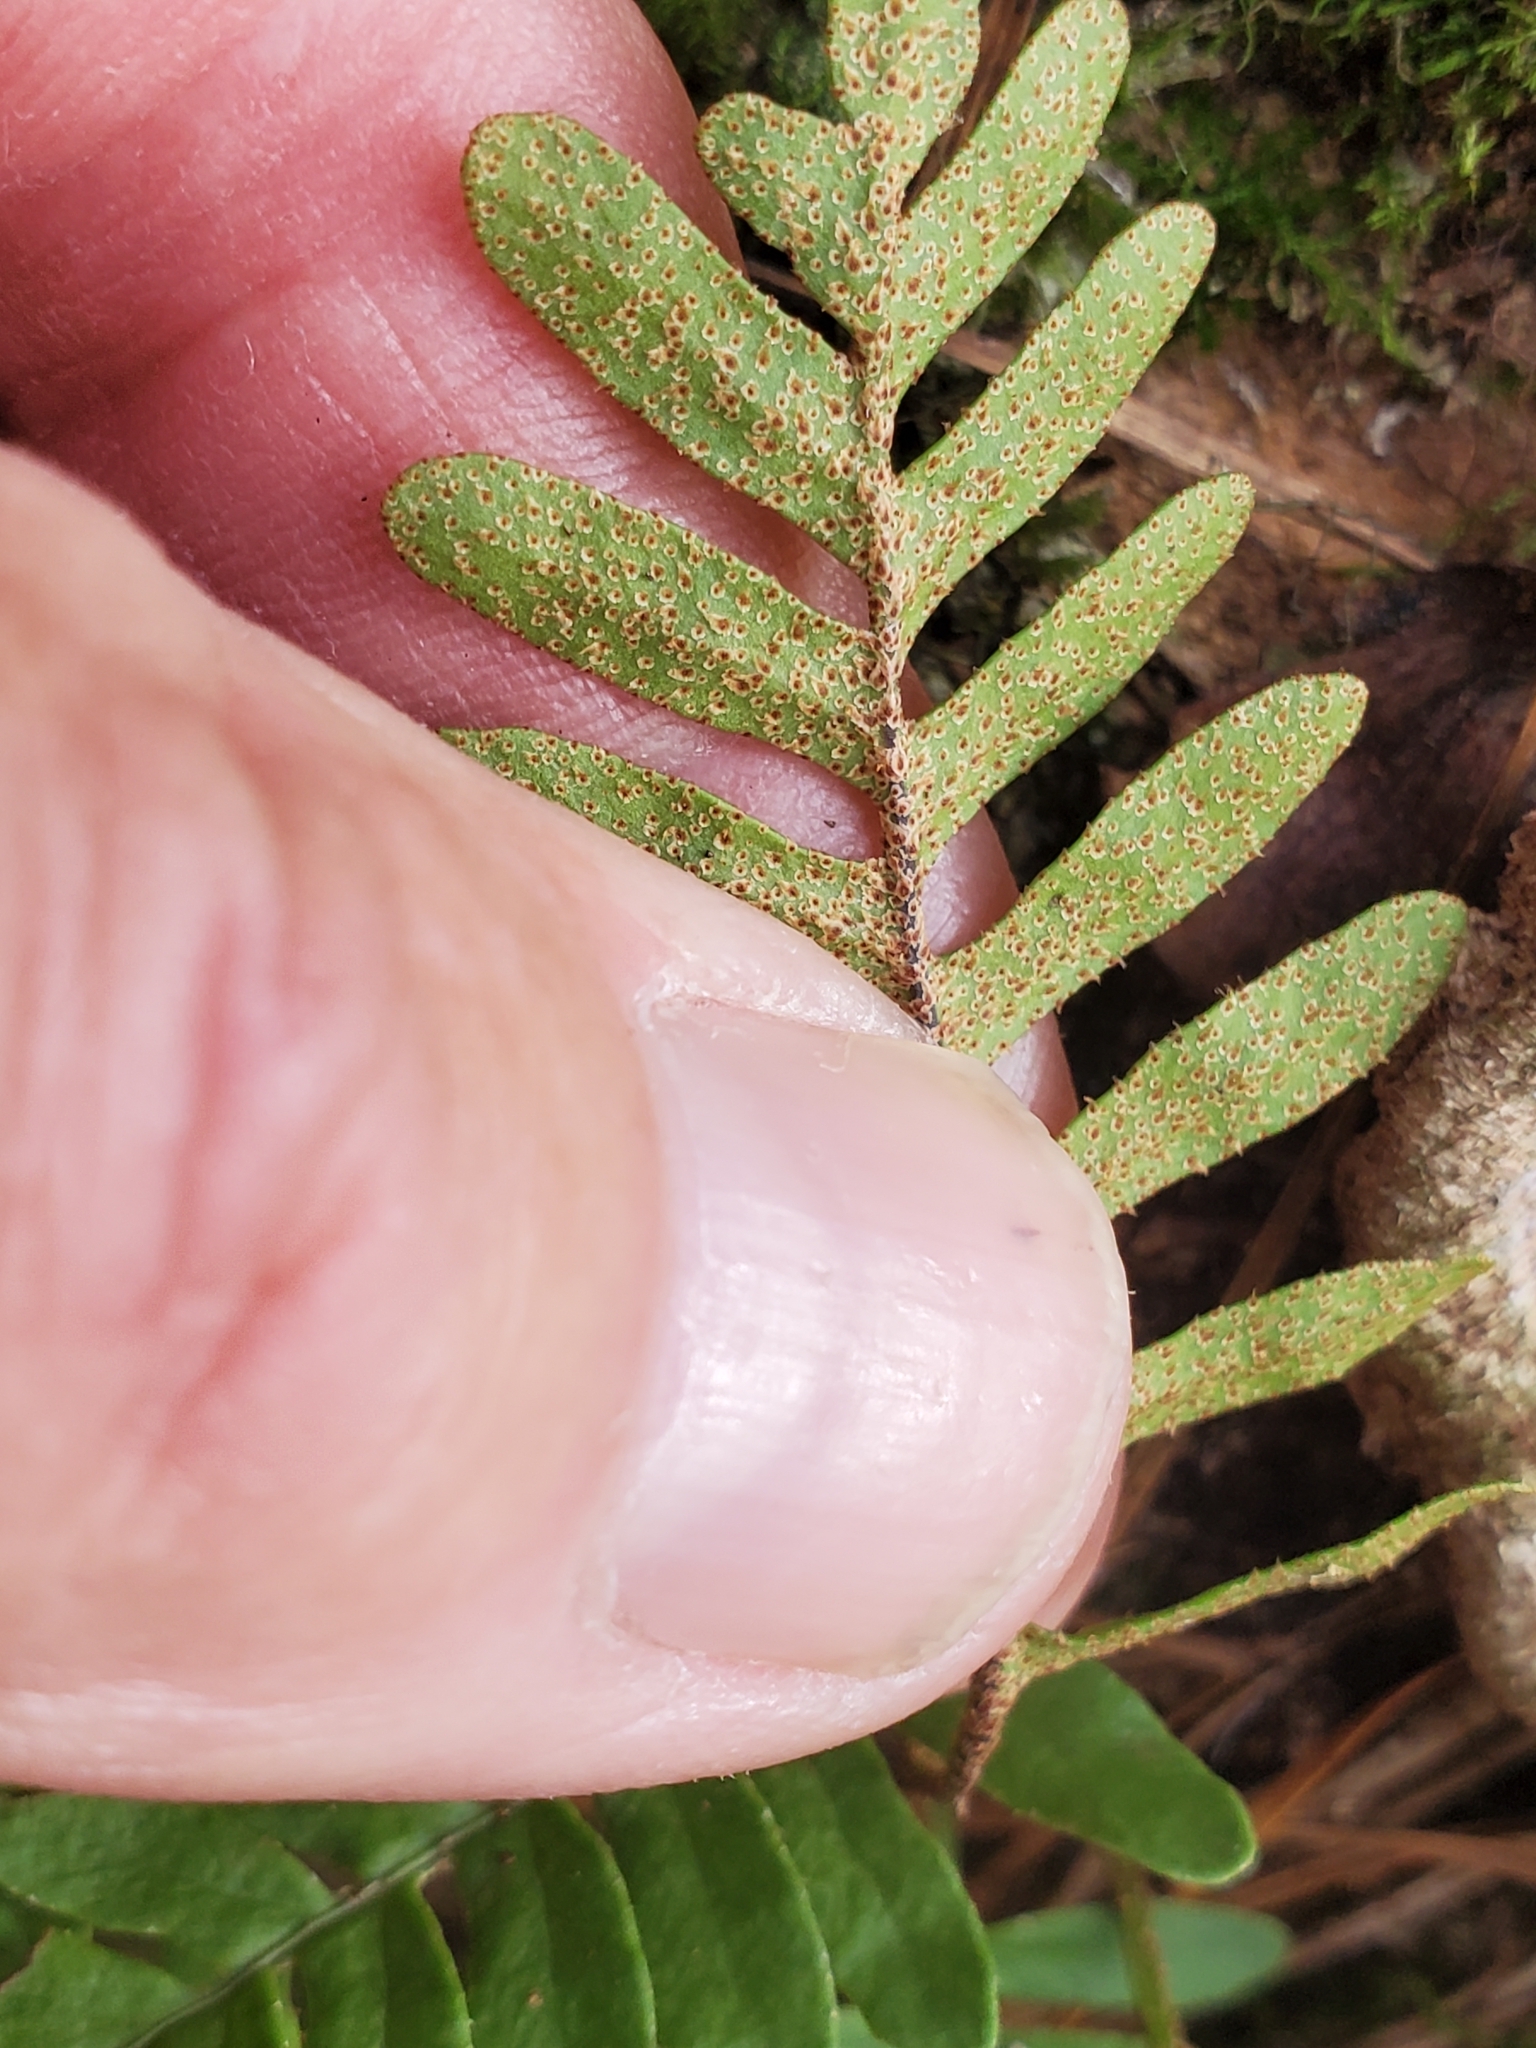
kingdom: Plantae
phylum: Tracheophyta
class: Polypodiopsida
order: Polypodiales
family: Polypodiaceae
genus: Pleopeltis
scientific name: Pleopeltis michauxiana
